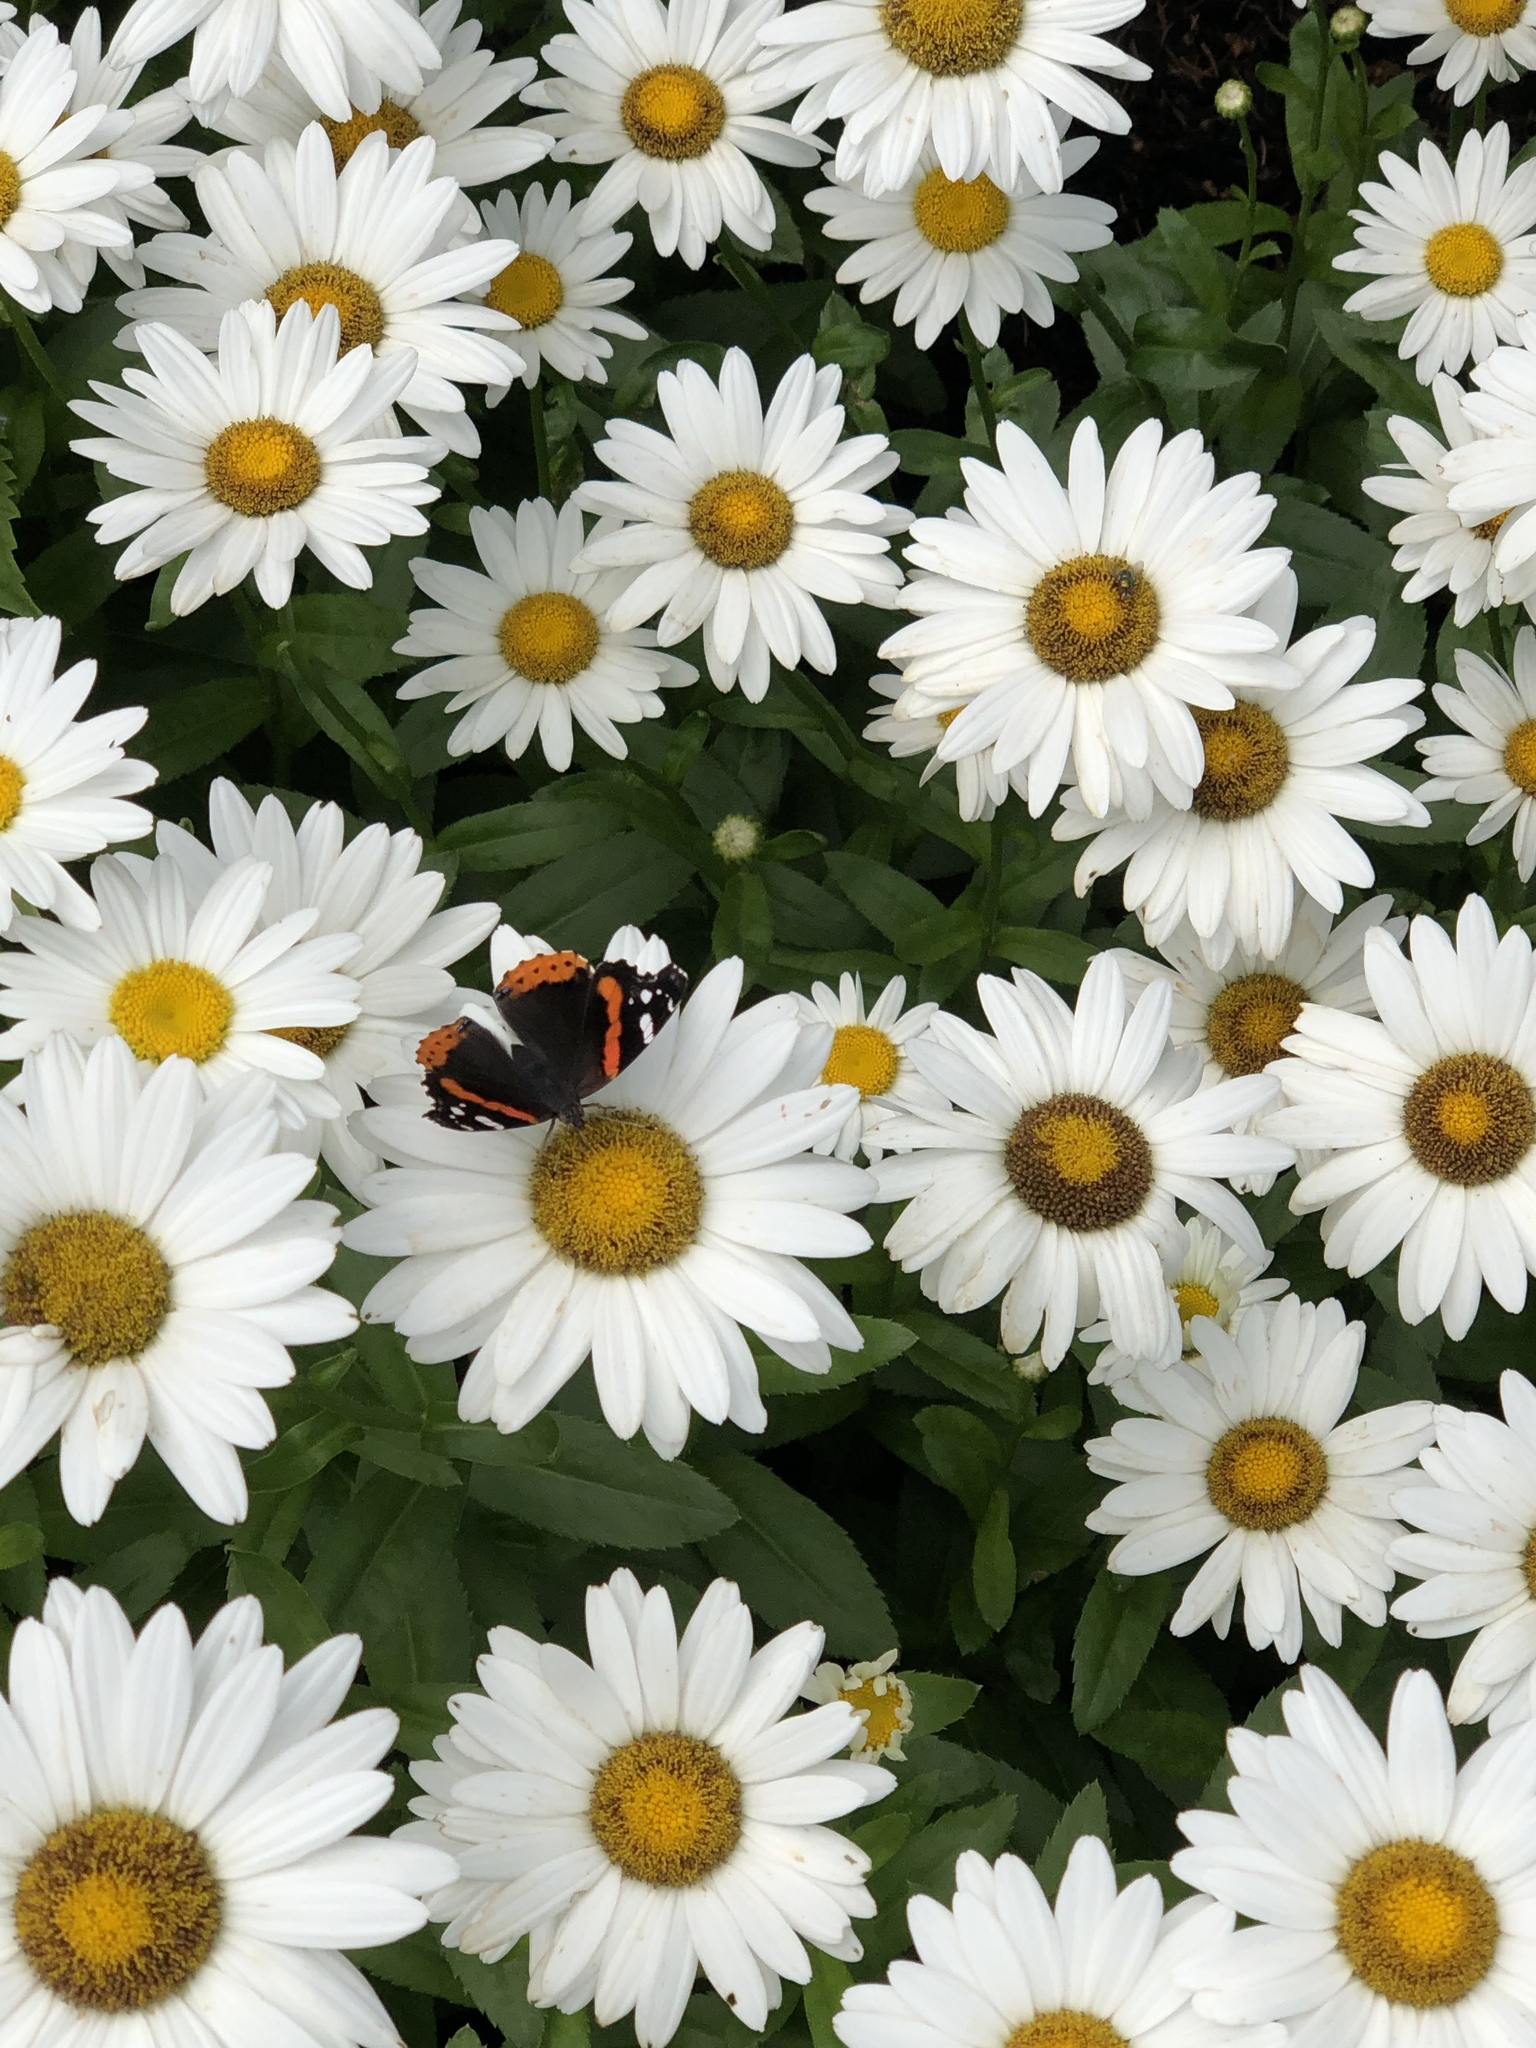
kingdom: Animalia
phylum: Arthropoda
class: Insecta
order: Lepidoptera
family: Nymphalidae
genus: Vanessa
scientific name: Vanessa atalanta
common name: Red admiral
